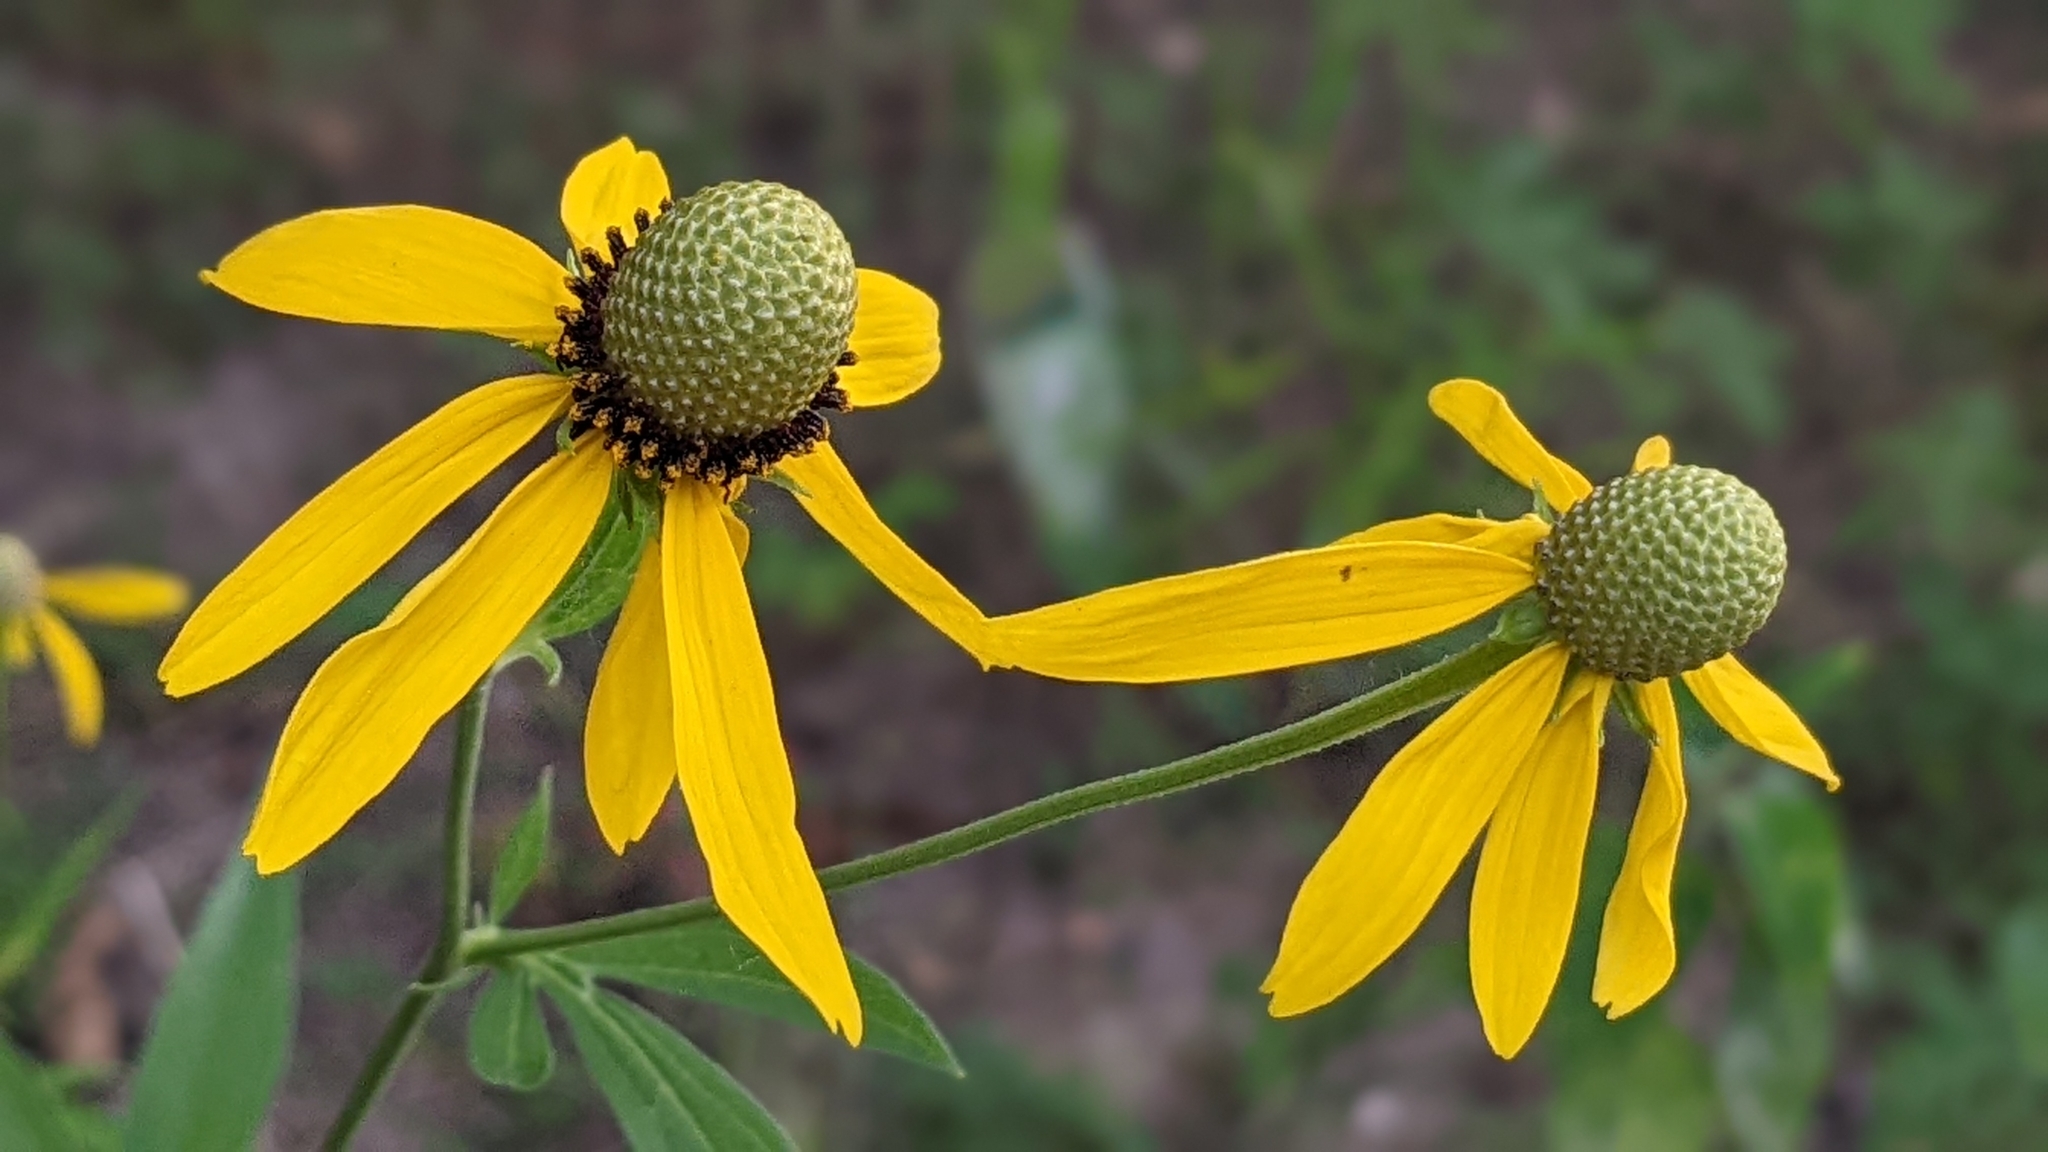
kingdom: Plantae
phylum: Tracheophyta
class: Magnoliopsida
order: Asterales
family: Asteraceae
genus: Ratibida
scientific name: Ratibida pinnata
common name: Drooping prairie-coneflower
